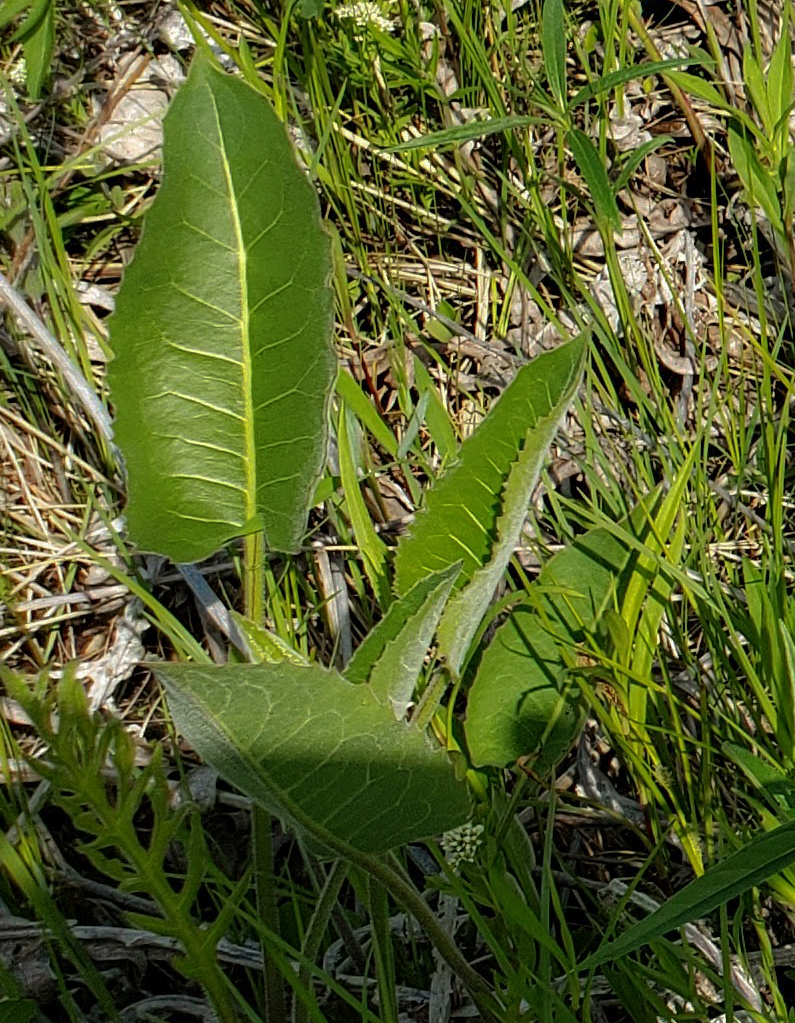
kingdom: Plantae
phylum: Tracheophyta
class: Magnoliopsida
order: Asterales
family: Asteraceae
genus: Silphium
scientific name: Silphium terebinthinaceum
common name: Basal-leaf rosinweed
